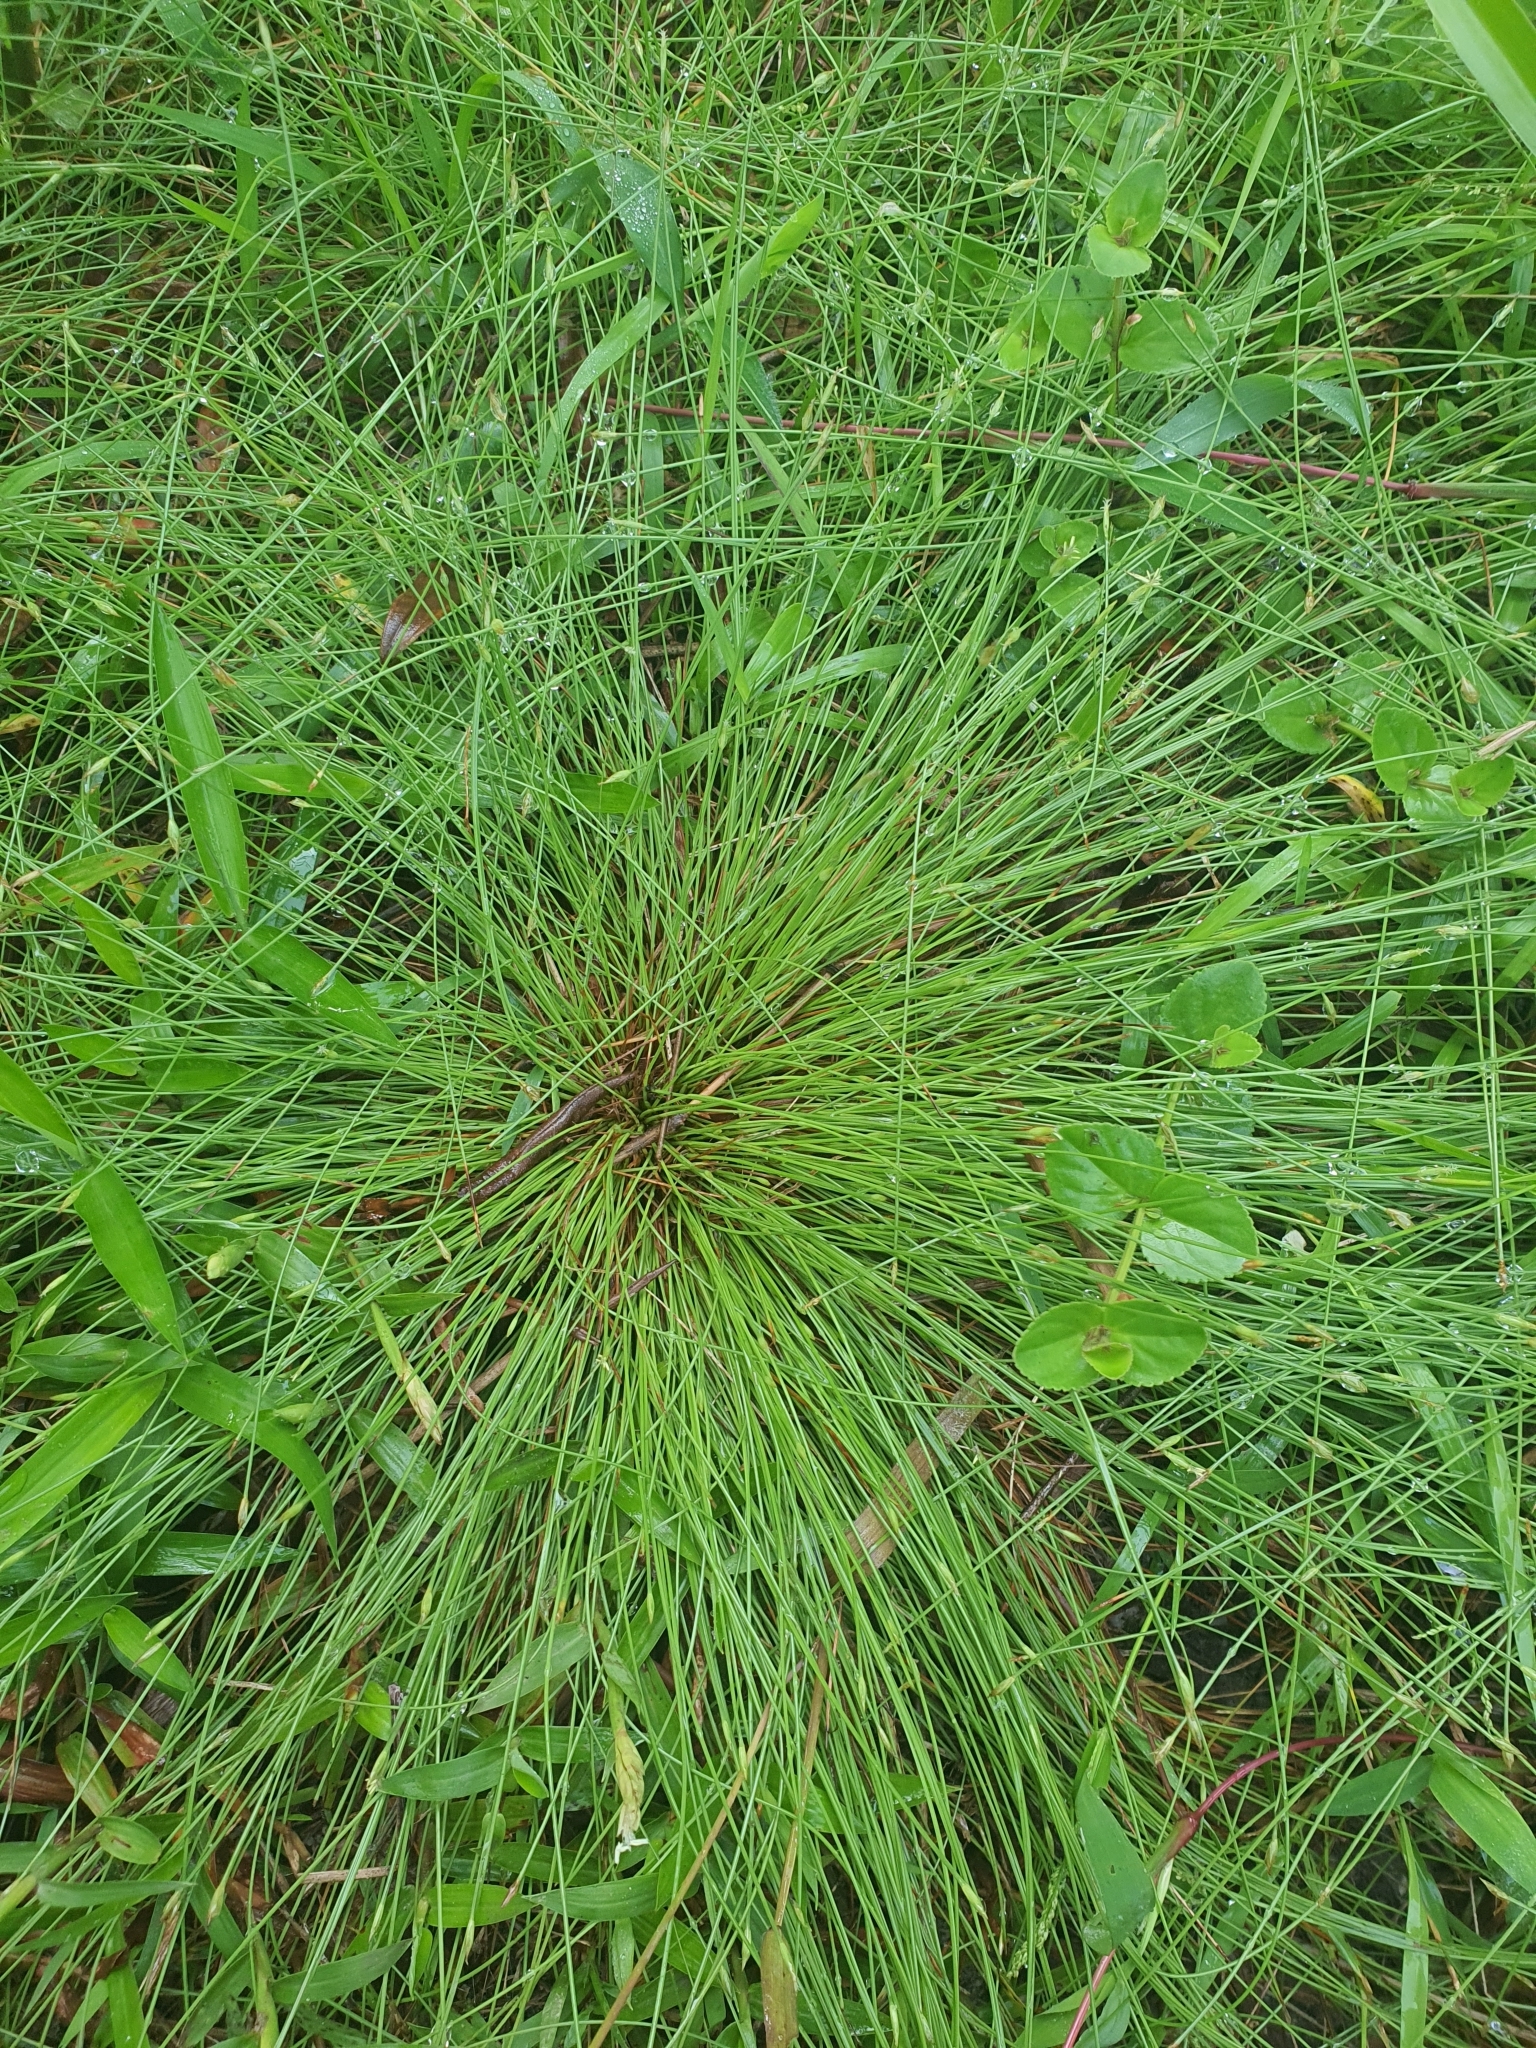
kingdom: Plantae
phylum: Tracheophyta
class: Liliopsida
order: Poales
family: Cyperaceae
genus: Fimbristylis
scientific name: Fimbristylis acuminata
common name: Pointed fimbristylis
